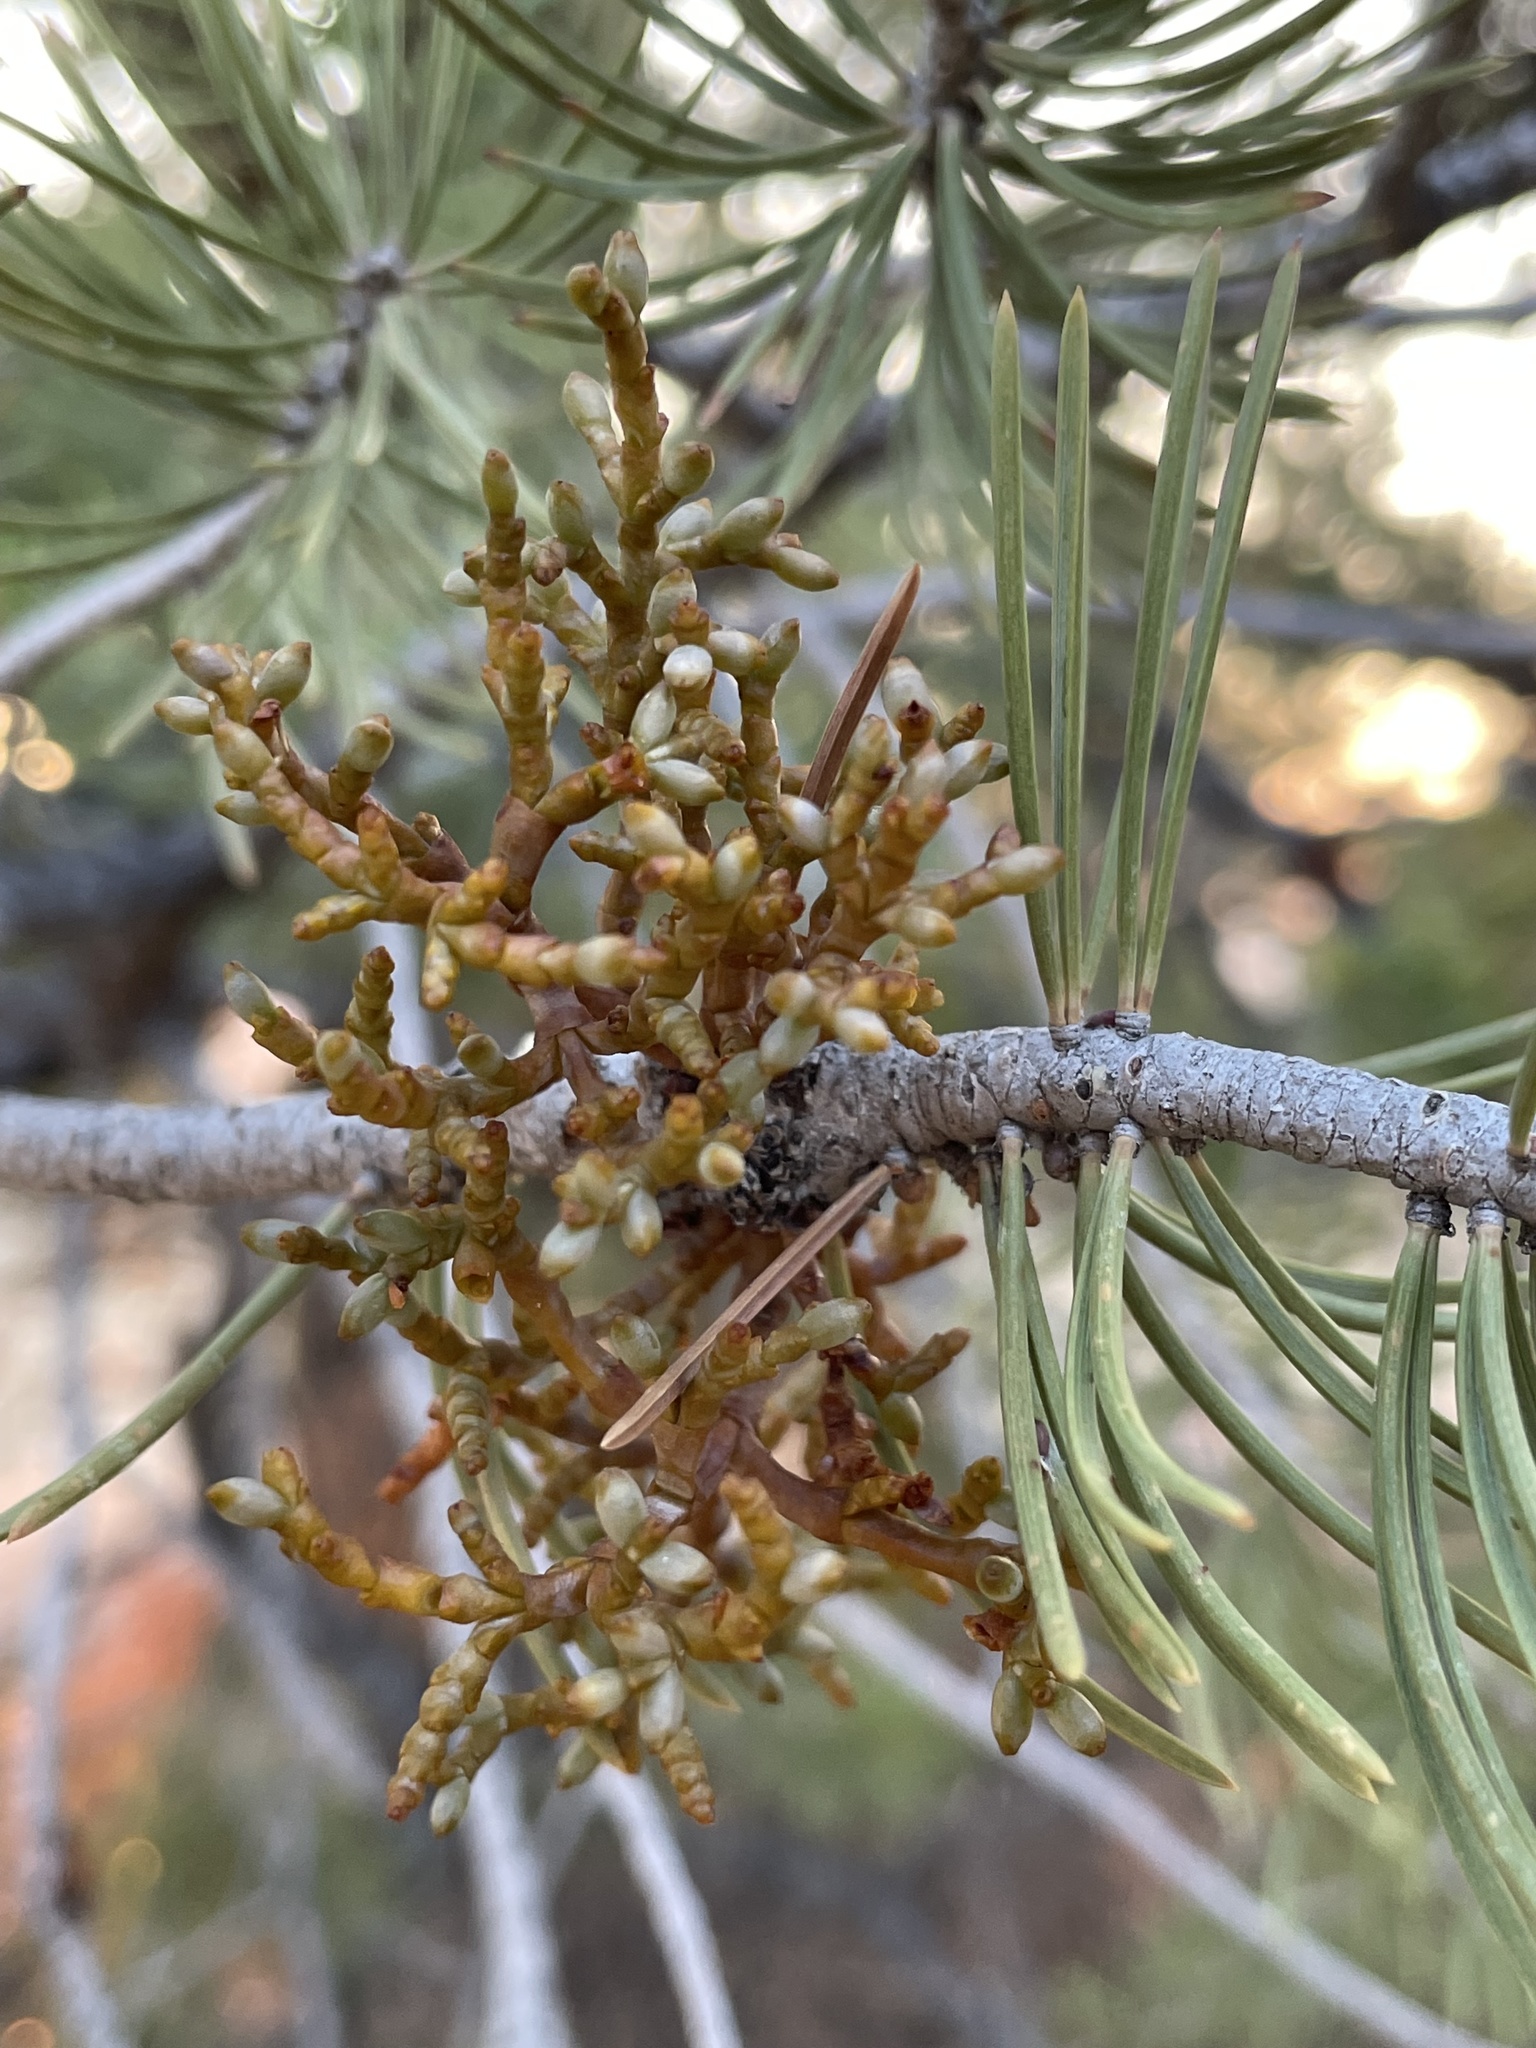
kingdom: Plantae
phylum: Tracheophyta
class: Magnoliopsida
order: Santalales
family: Viscaceae
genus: Arceuthobium
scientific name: Arceuthobium divaricatum
